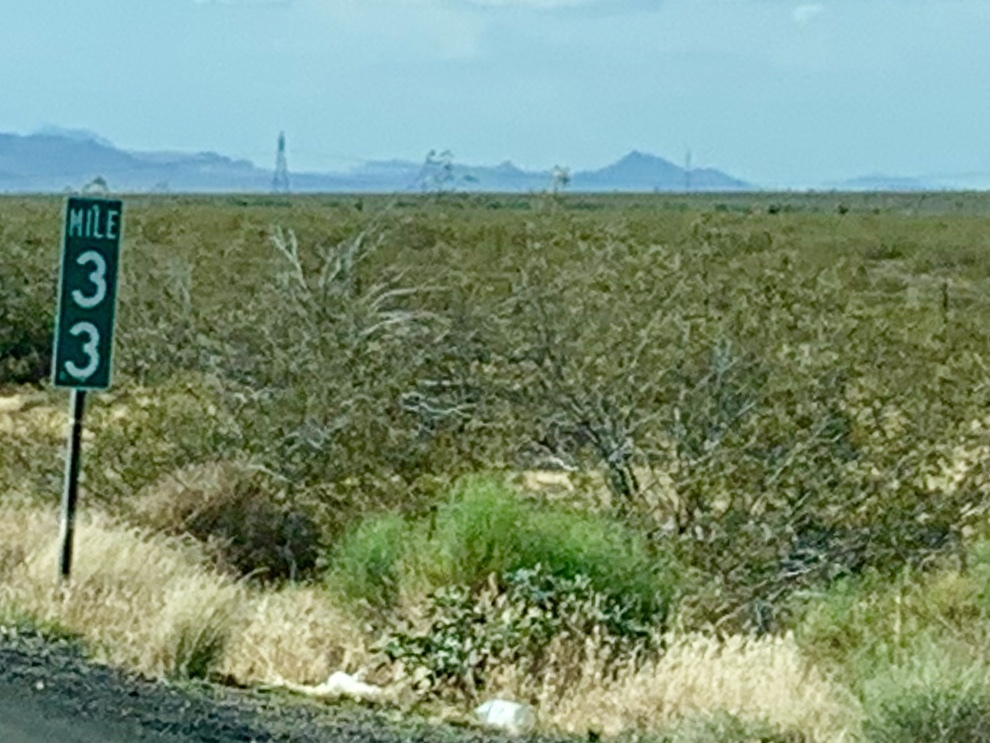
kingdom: Plantae
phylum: Tracheophyta
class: Magnoliopsida
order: Zygophyllales
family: Zygophyllaceae
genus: Larrea
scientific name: Larrea tridentata
